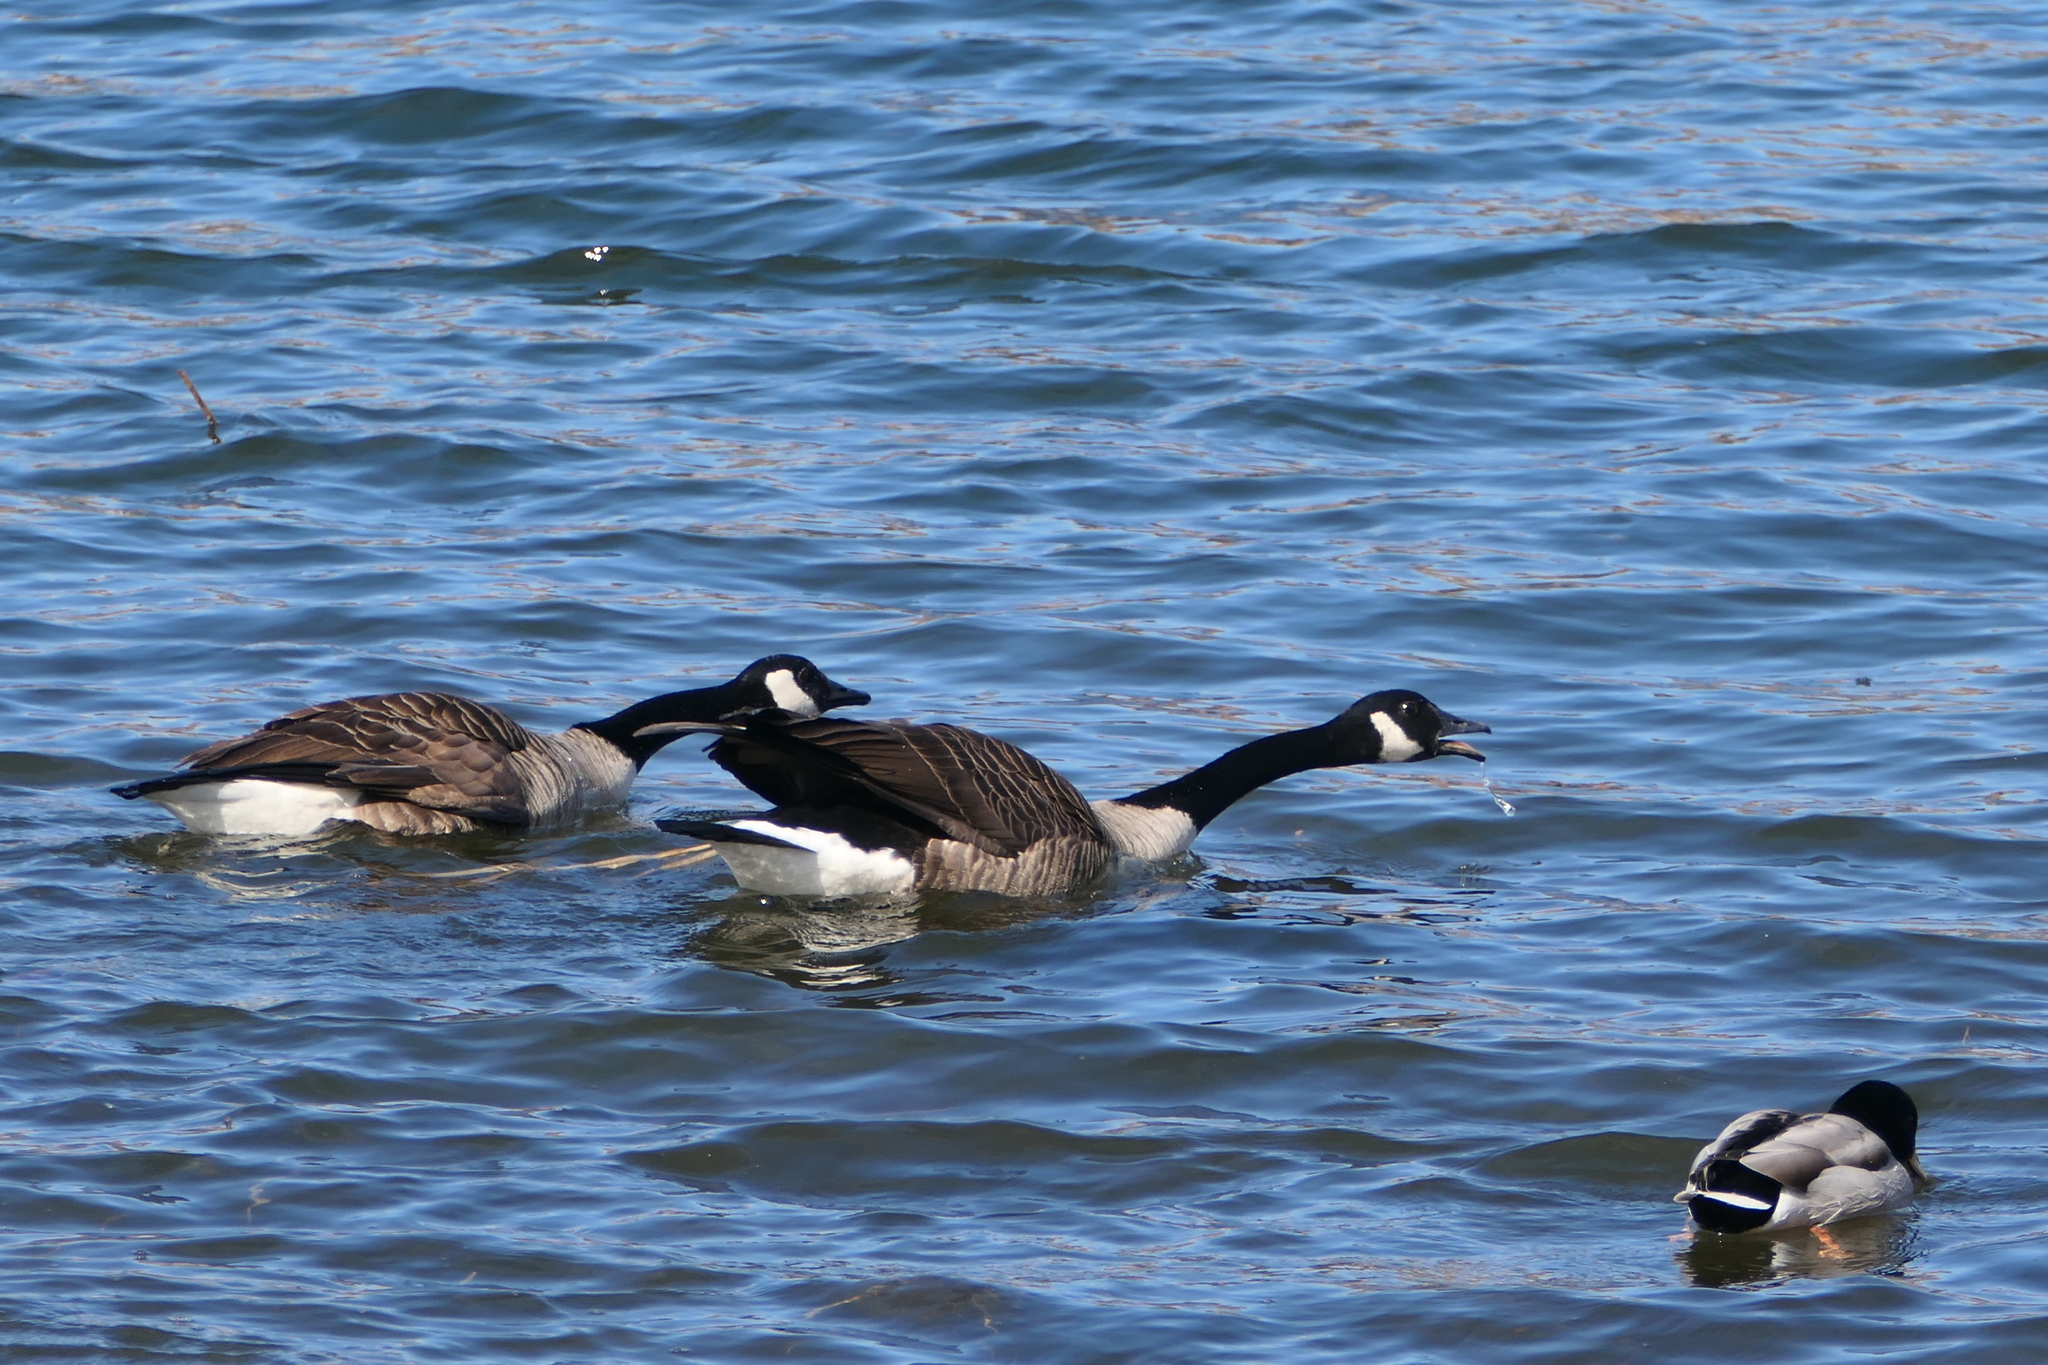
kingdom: Animalia
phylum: Chordata
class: Aves
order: Anseriformes
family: Anatidae
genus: Branta
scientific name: Branta canadensis
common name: Canada goose
